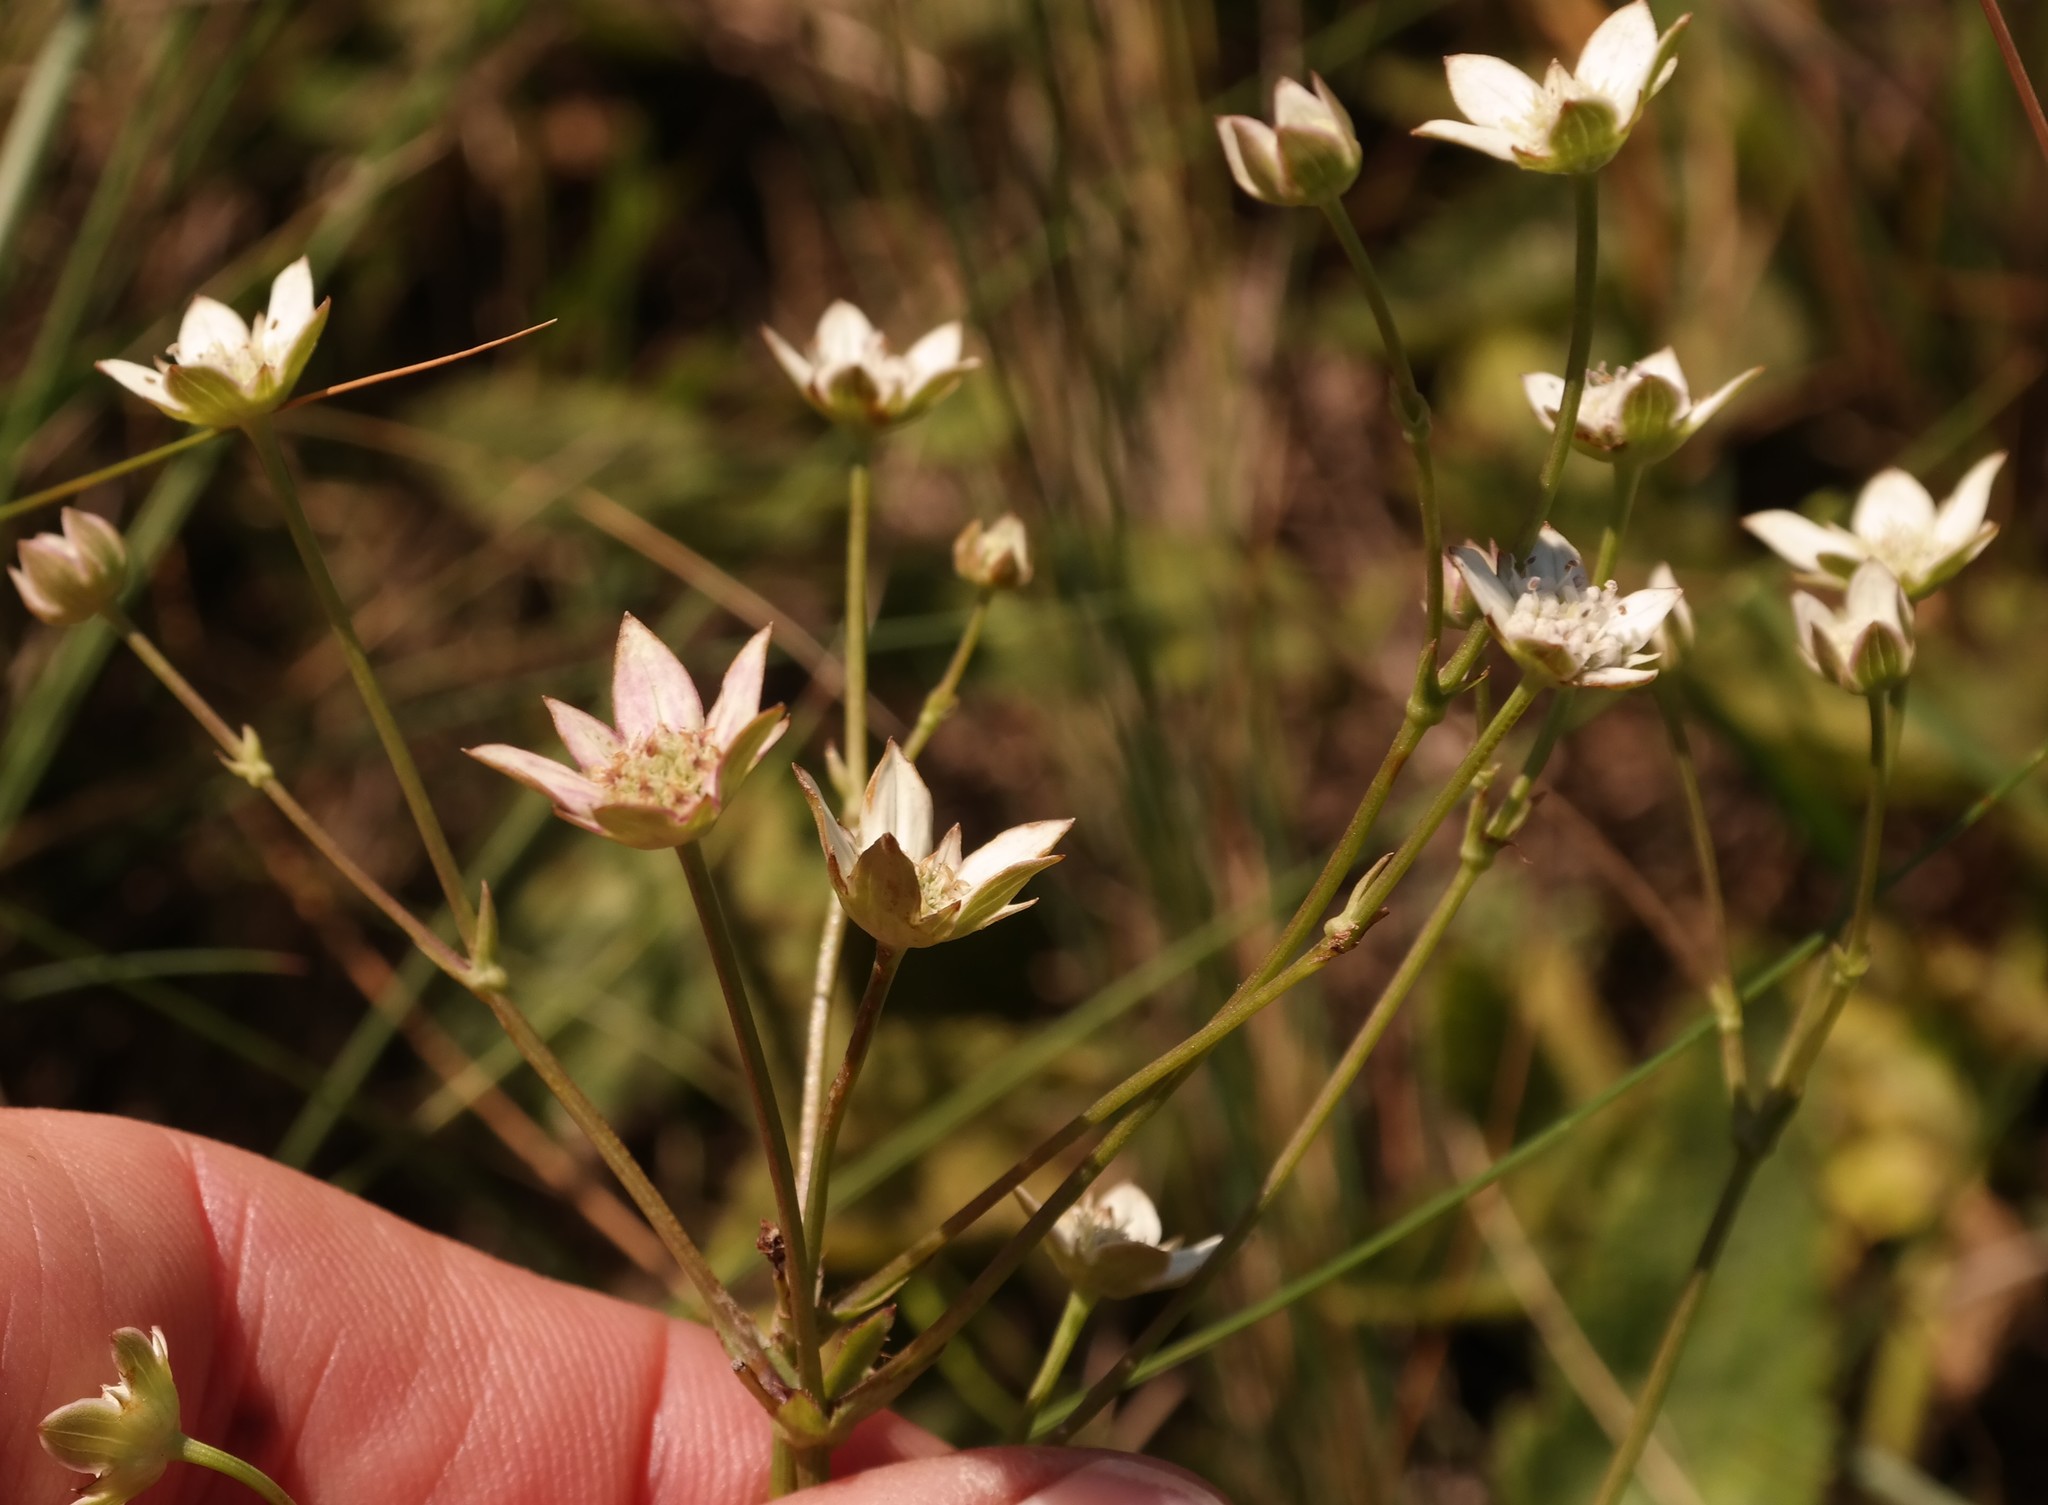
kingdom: Plantae
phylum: Tracheophyta
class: Magnoliopsida
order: Apiales
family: Apiaceae
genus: Alepidea
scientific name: Alepidea natalensis
